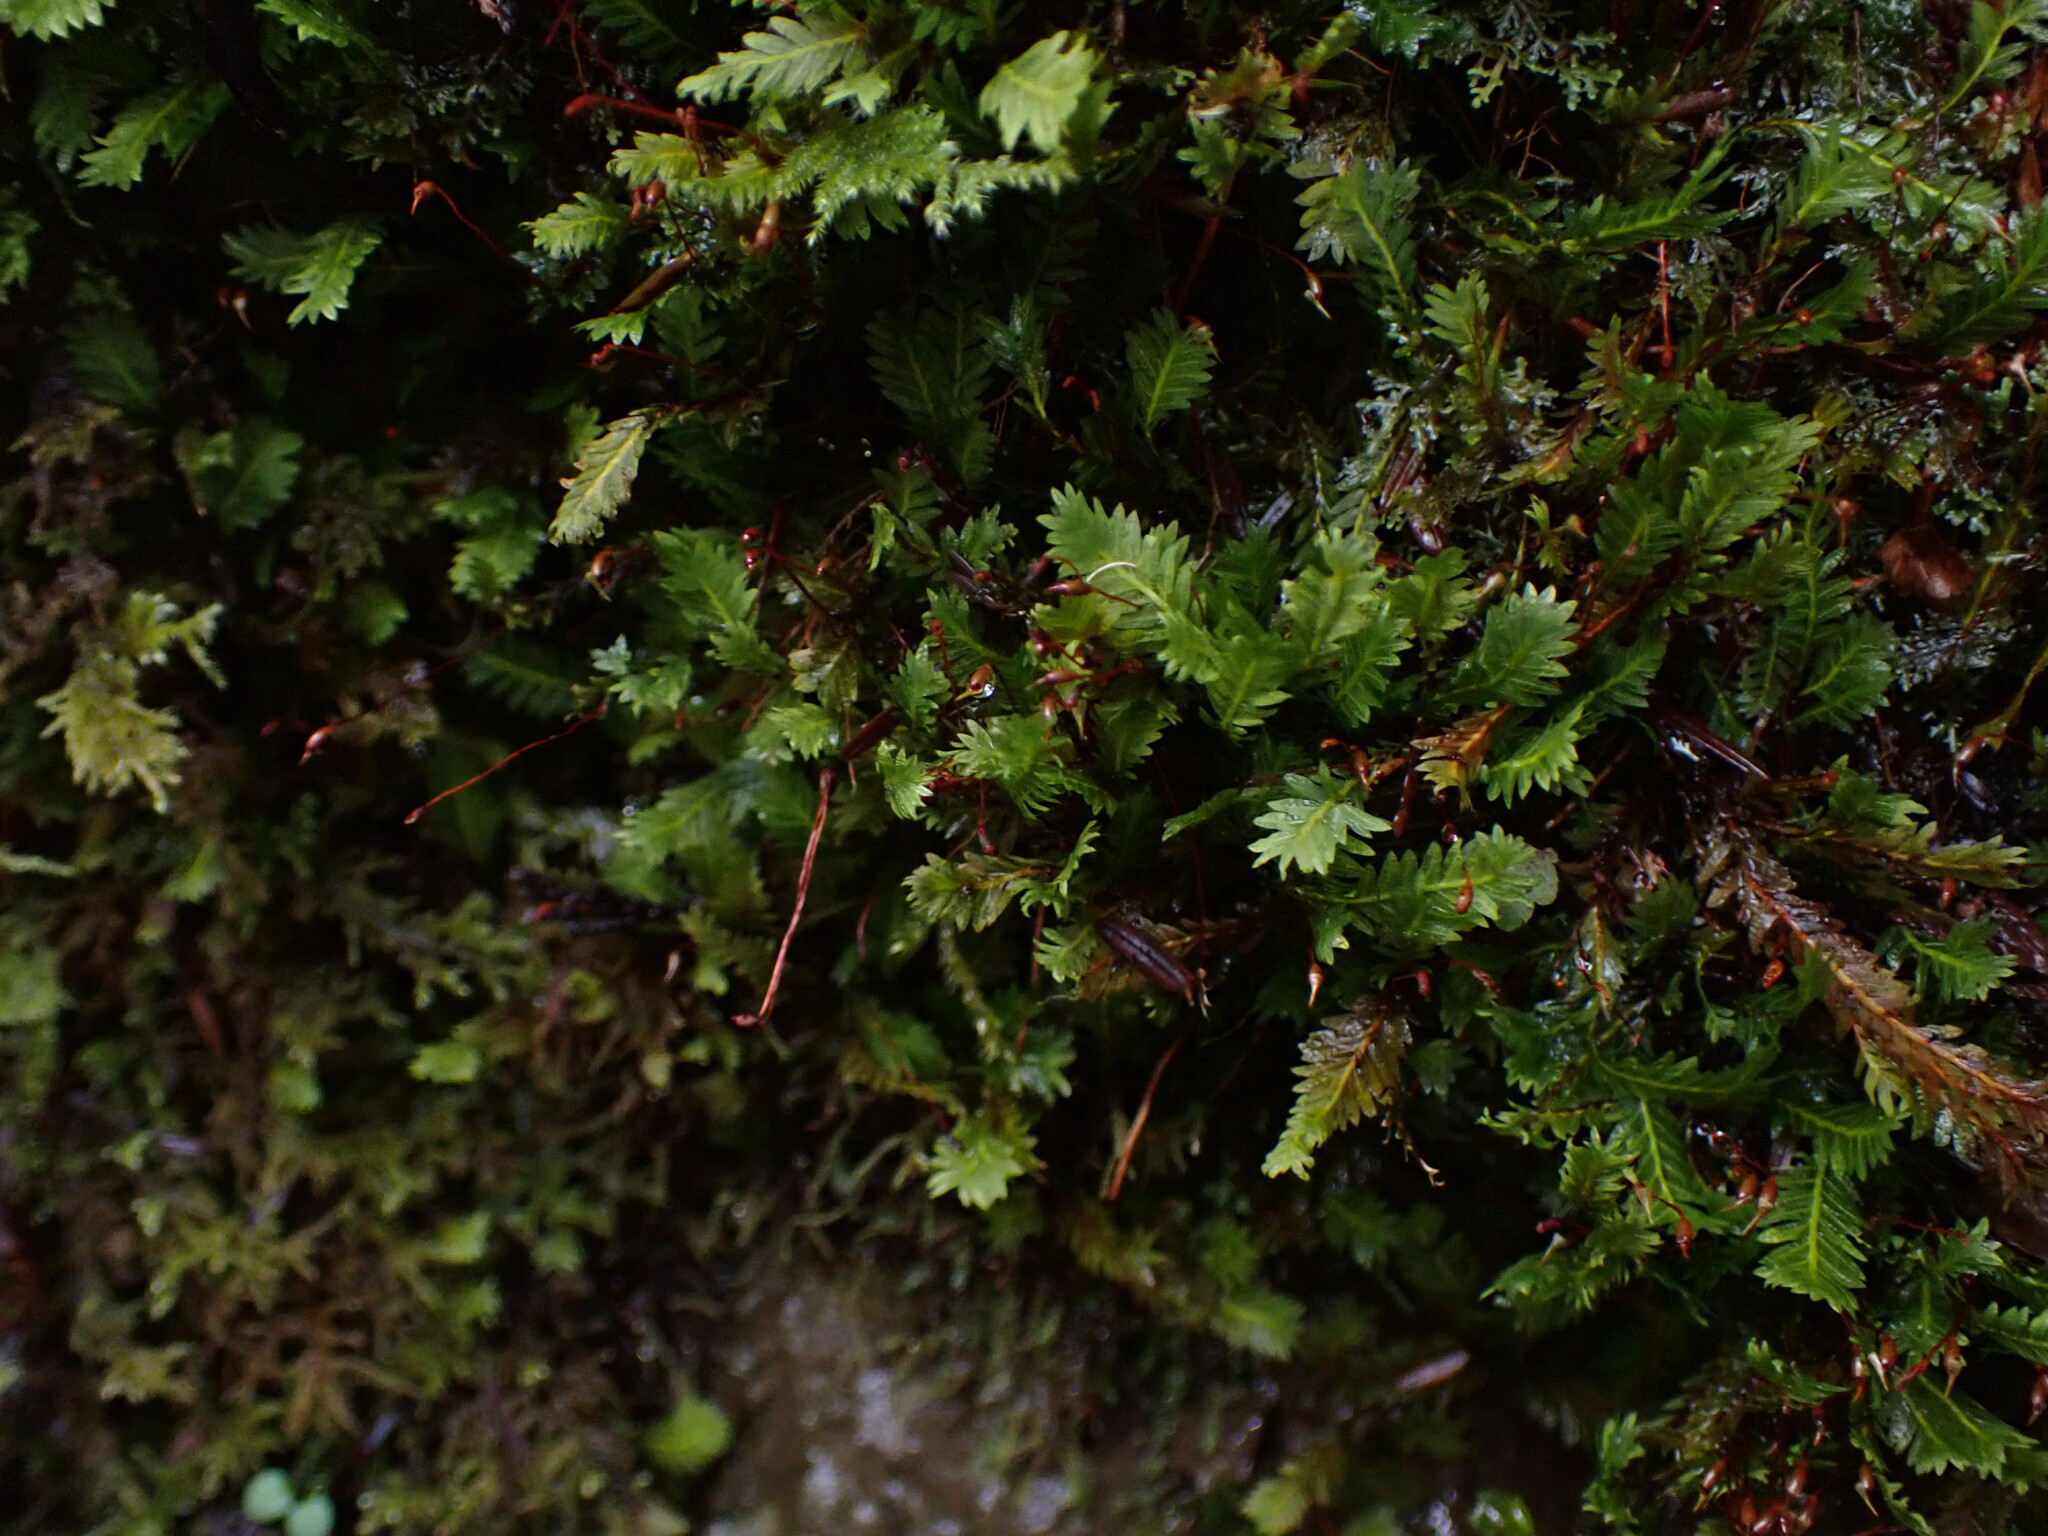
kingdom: Plantae
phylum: Bryophyta
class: Bryopsida
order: Dicranales
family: Fissidentaceae
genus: Fissidens
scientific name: Fissidens adianthoides
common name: Maidenhair pocket moss
